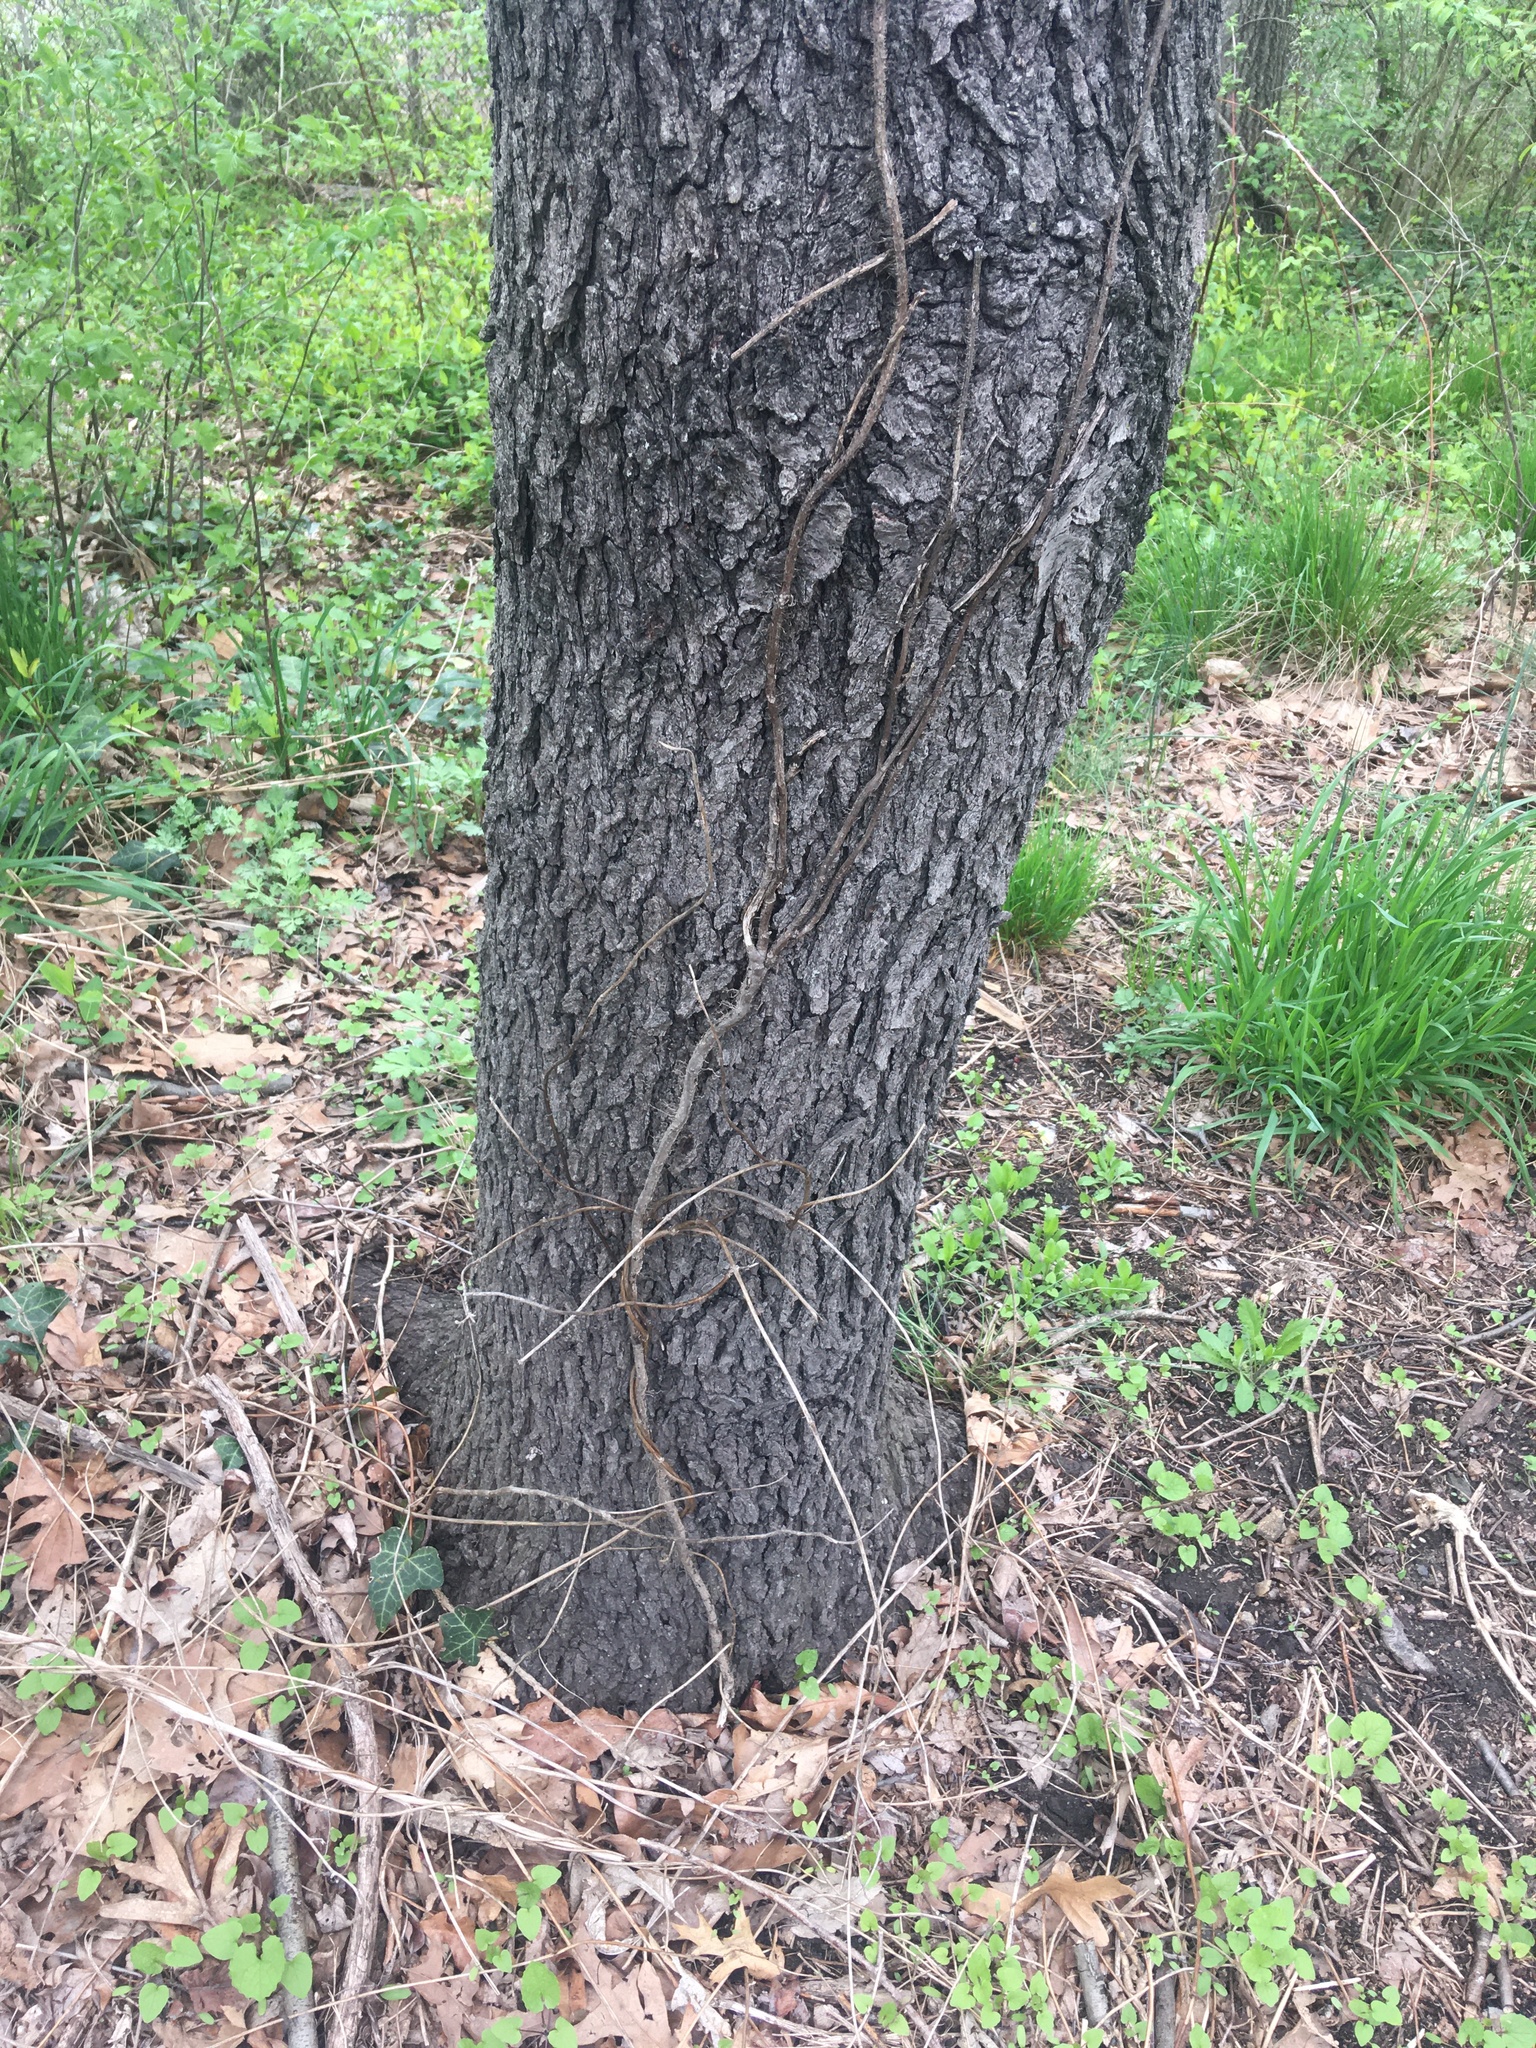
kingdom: Plantae
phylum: Tracheophyta
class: Magnoliopsida
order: Rosales
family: Rosaceae
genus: Prunus
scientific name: Prunus serotina
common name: Black cherry
